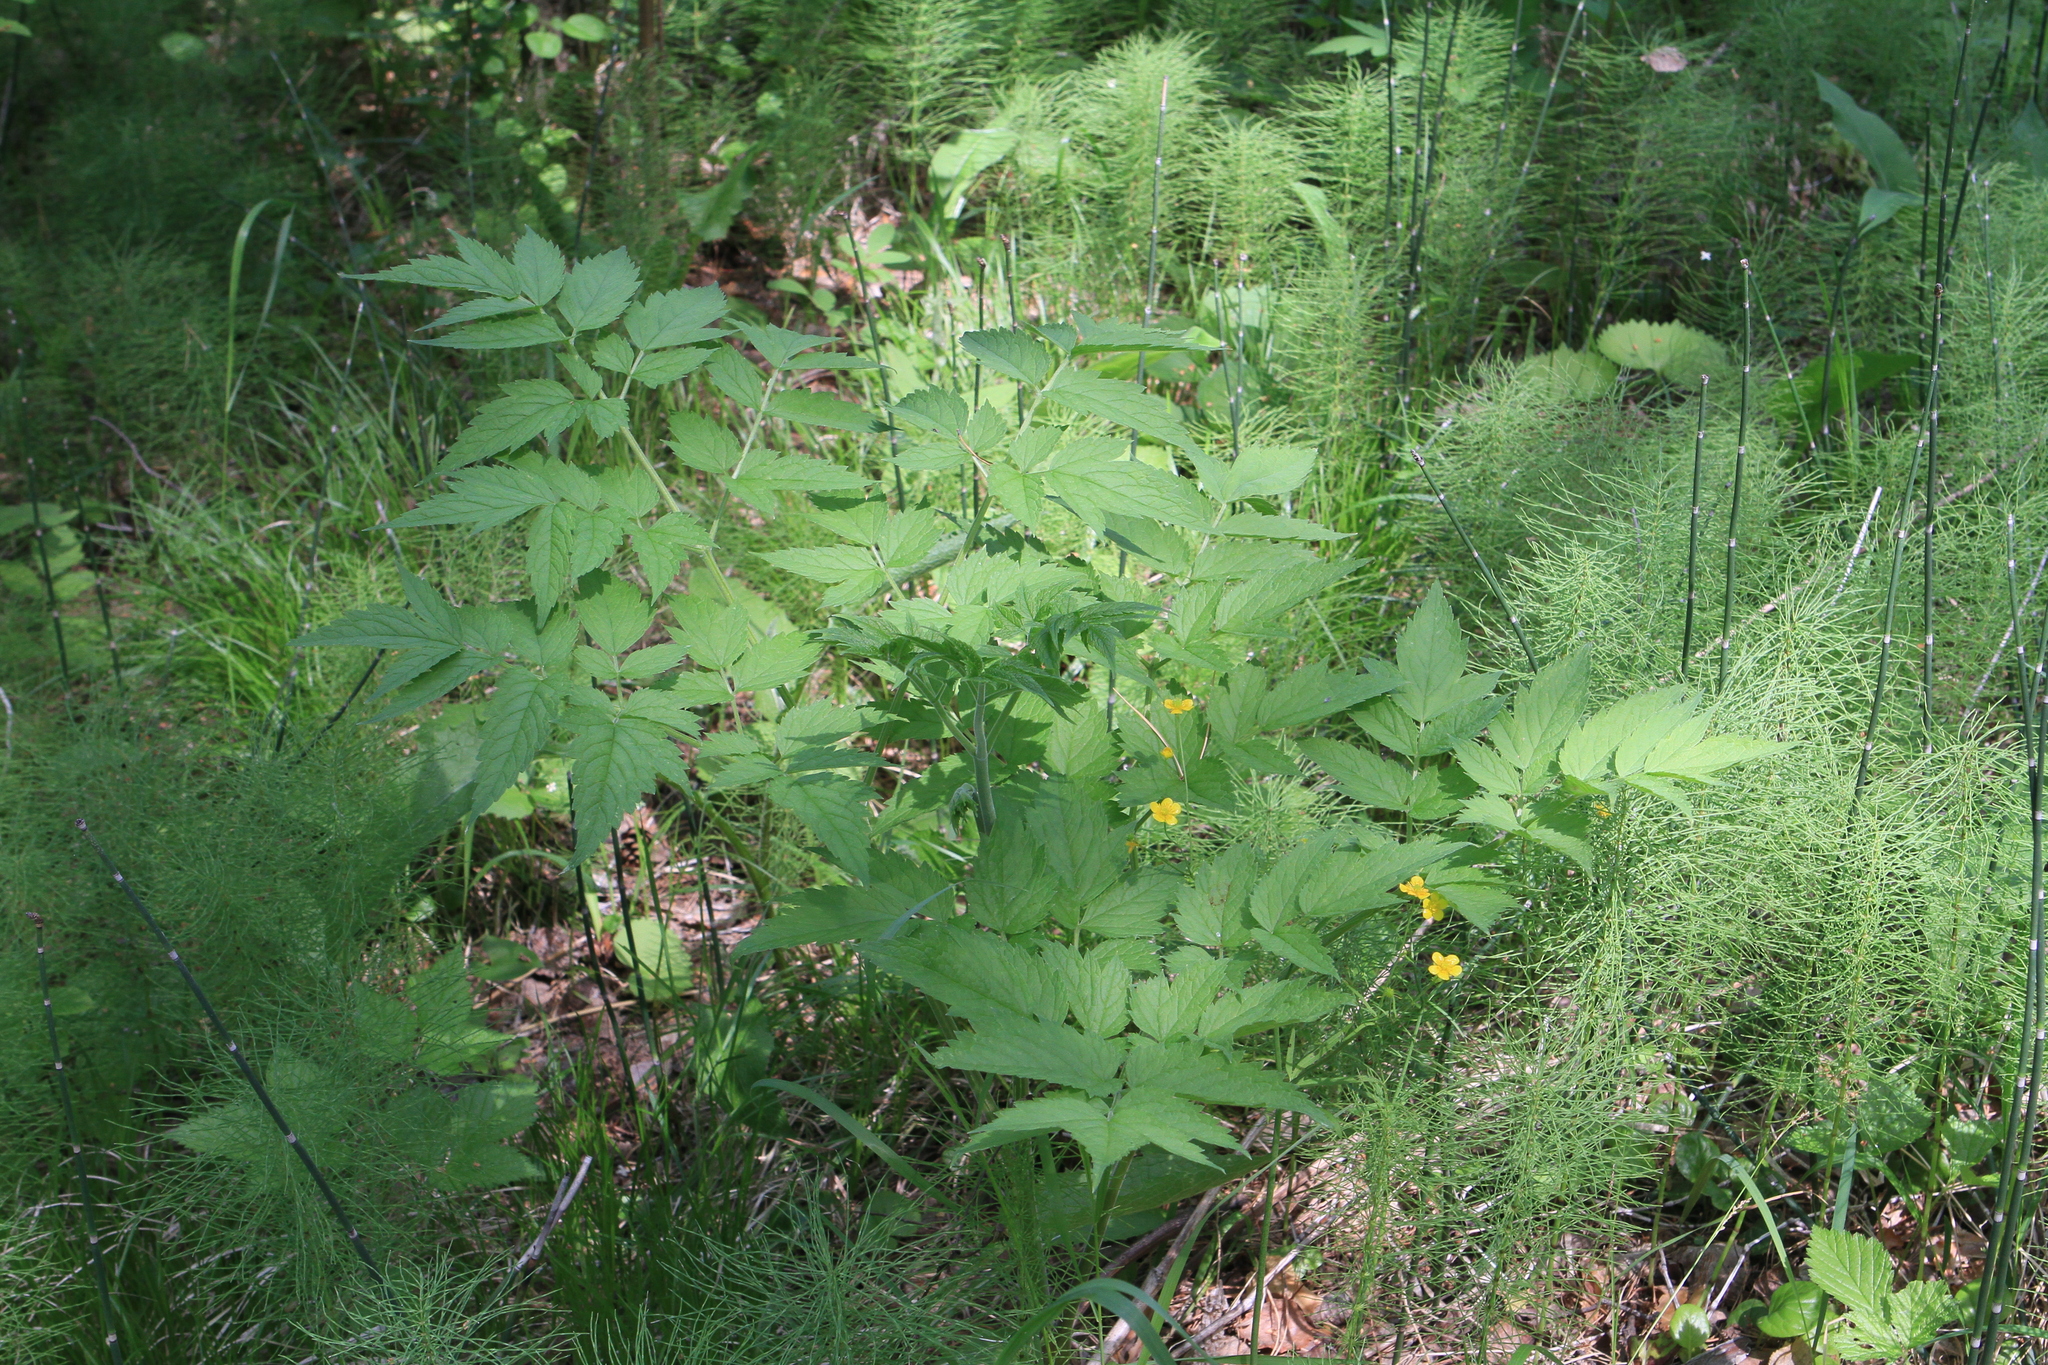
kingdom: Plantae
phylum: Tracheophyta
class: Magnoliopsida
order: Ranunculales
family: Ranunculaceae
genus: Actaea
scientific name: Actaea cimicifuga
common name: Chinese cimicifuga
